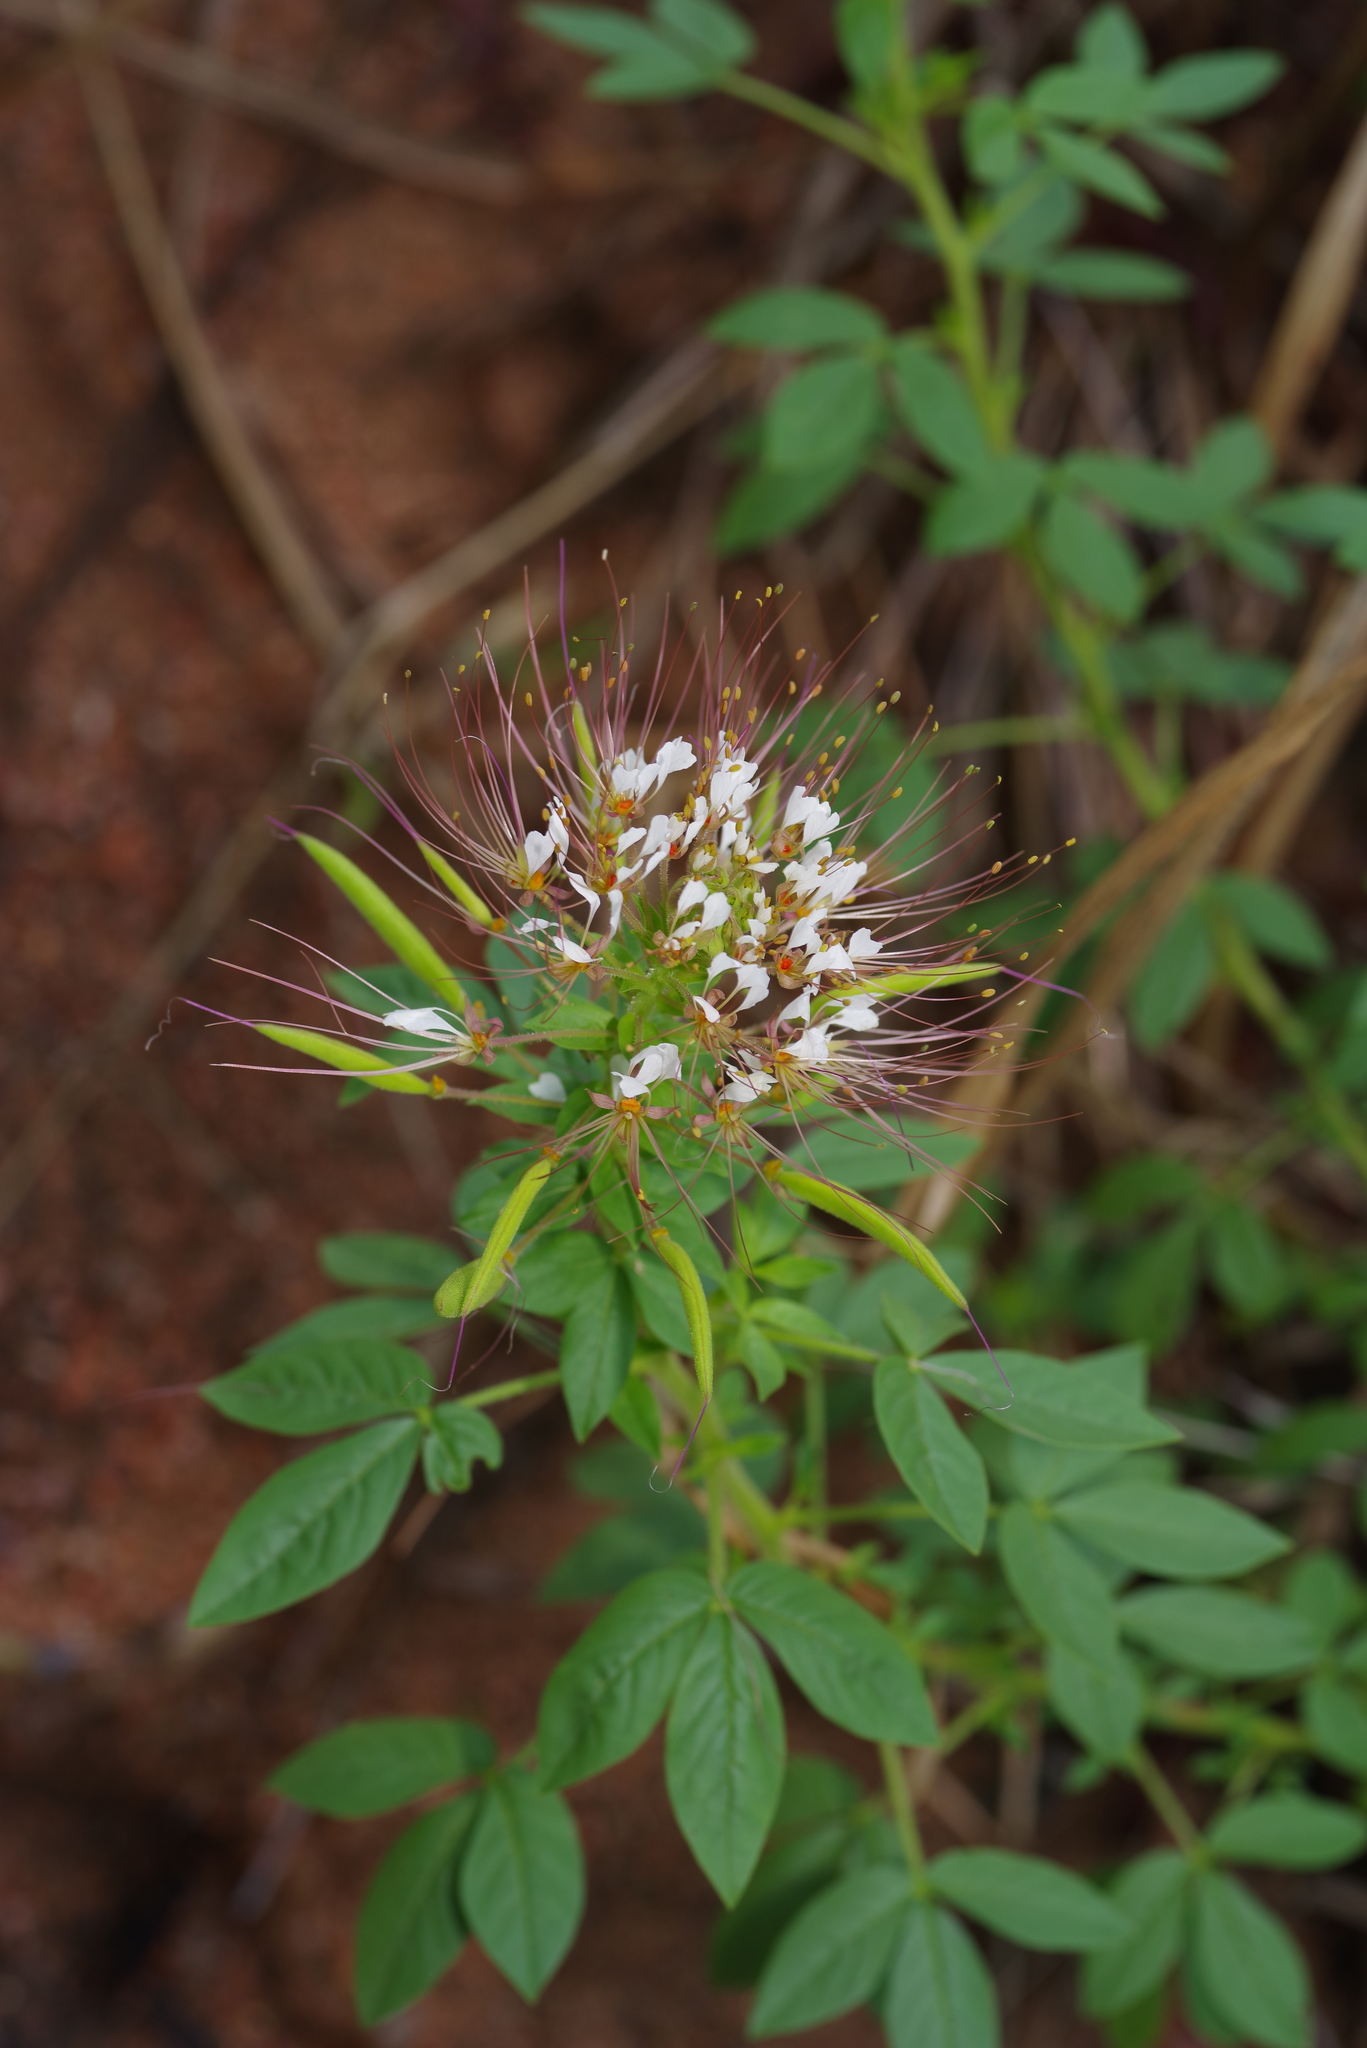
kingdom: Plantae
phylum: Tracheophyta
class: Magnoliopsida
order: Brassicales
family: Cleomaceae
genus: Polanisia
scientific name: Polanisia dodecandra
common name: Clammyweed
